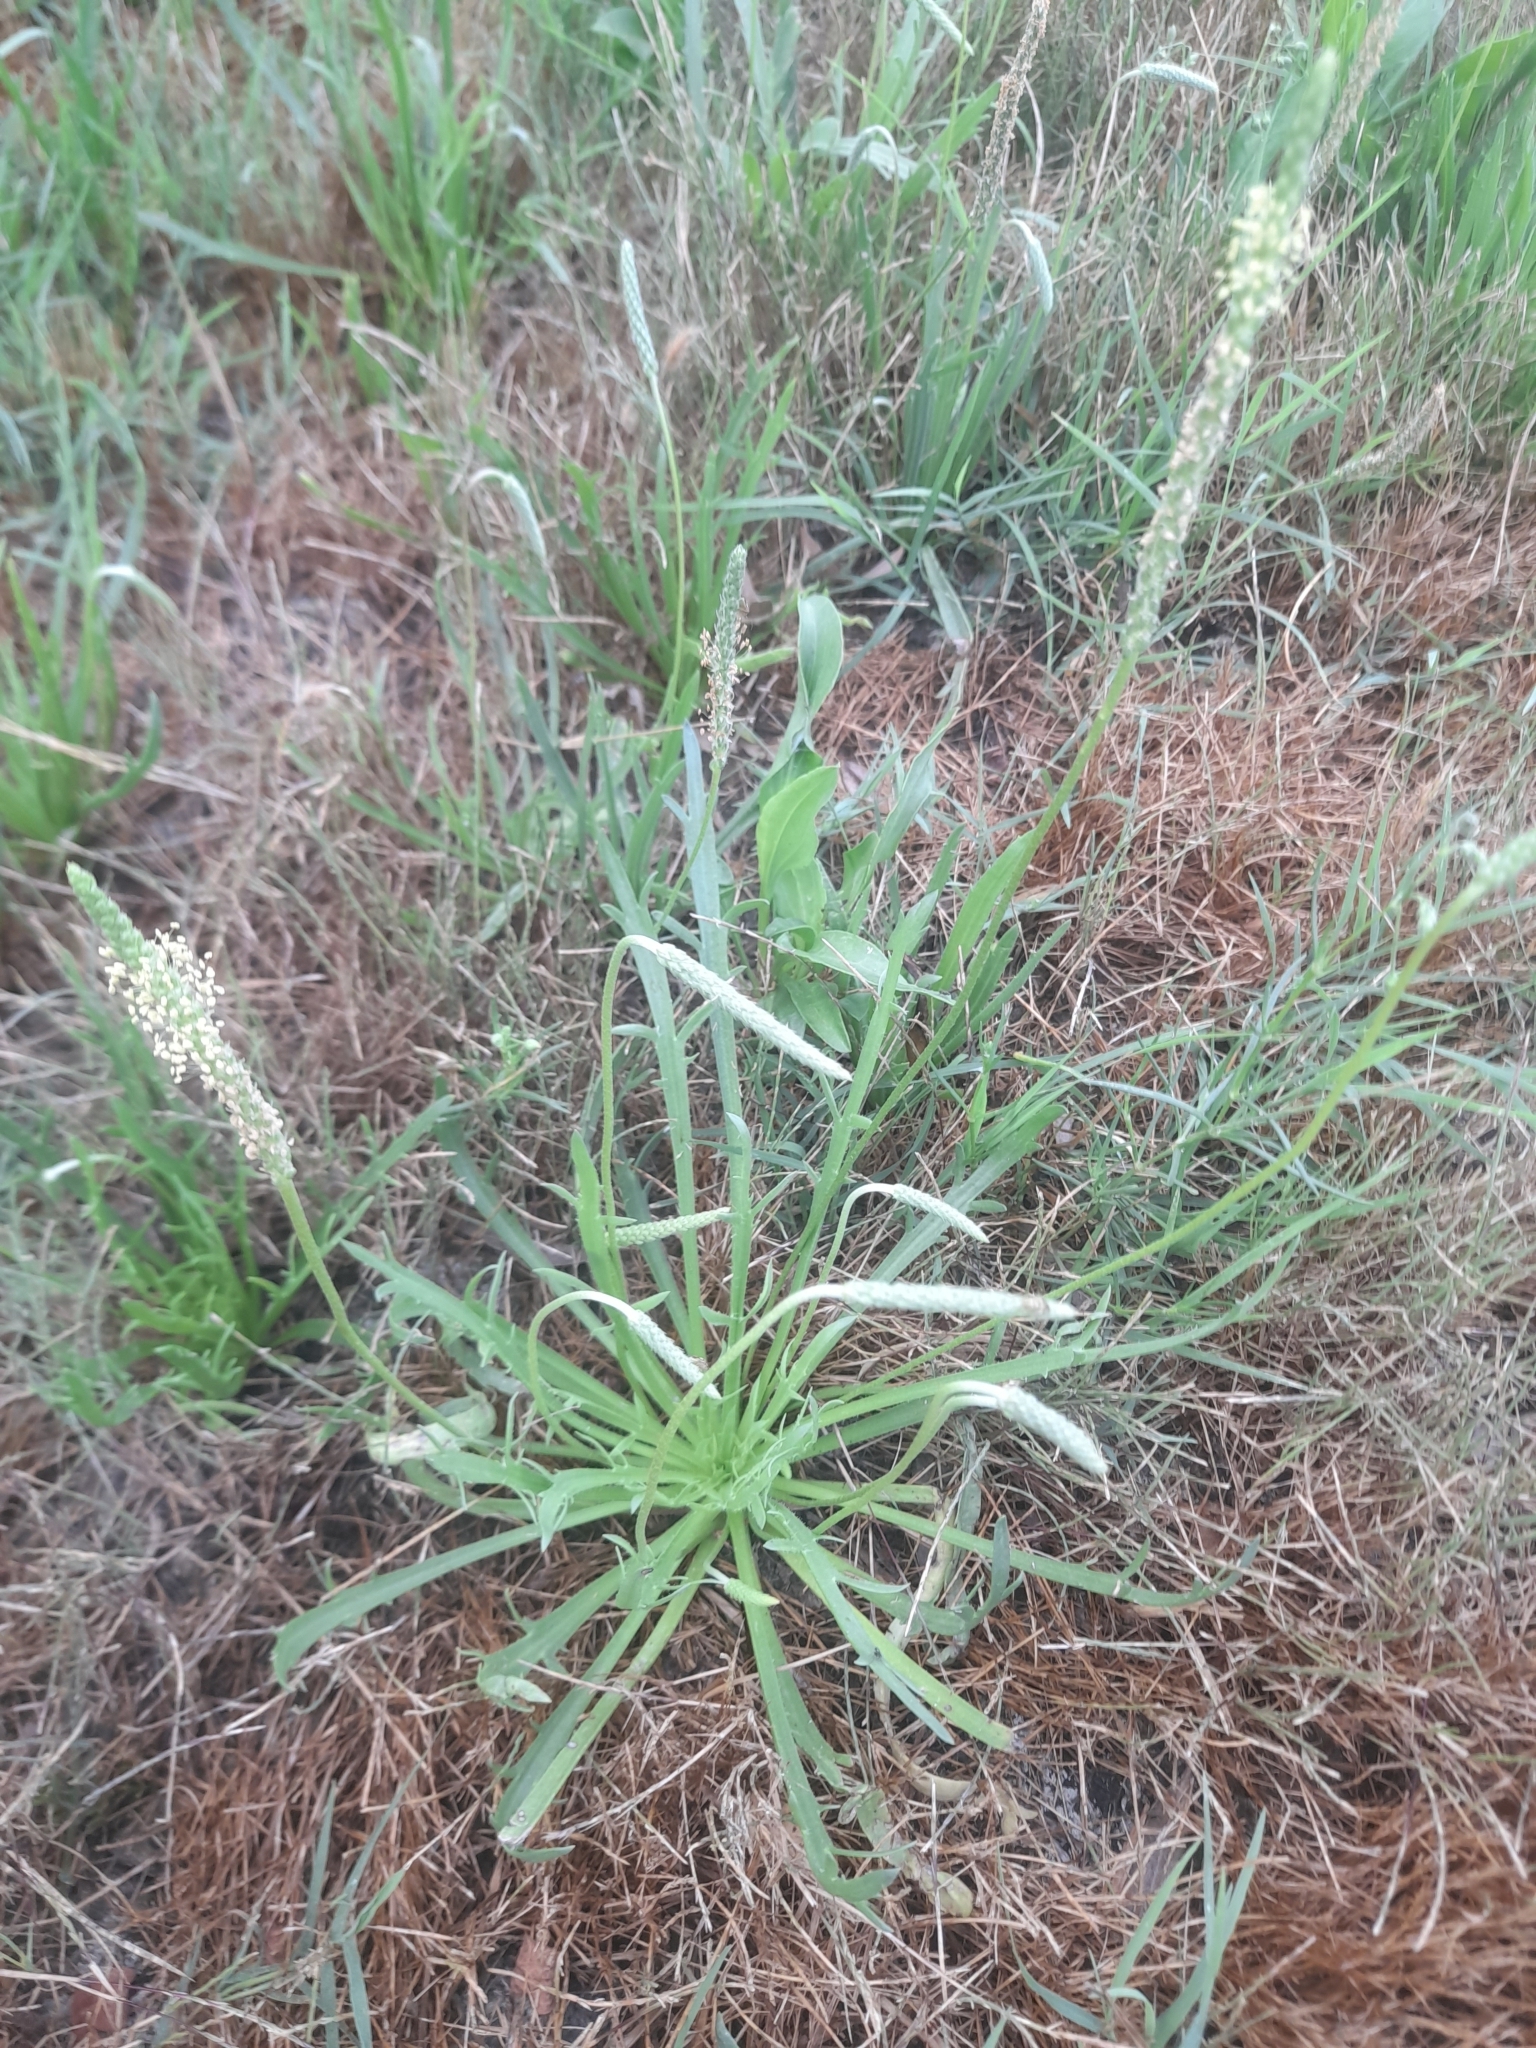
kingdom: Plantae
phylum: Tracheophyta
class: Magnoliopsida
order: Lamiales
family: Plantaginaceae
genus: Plantago
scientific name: Plantago coronopus
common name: Buck's-horn plantain
